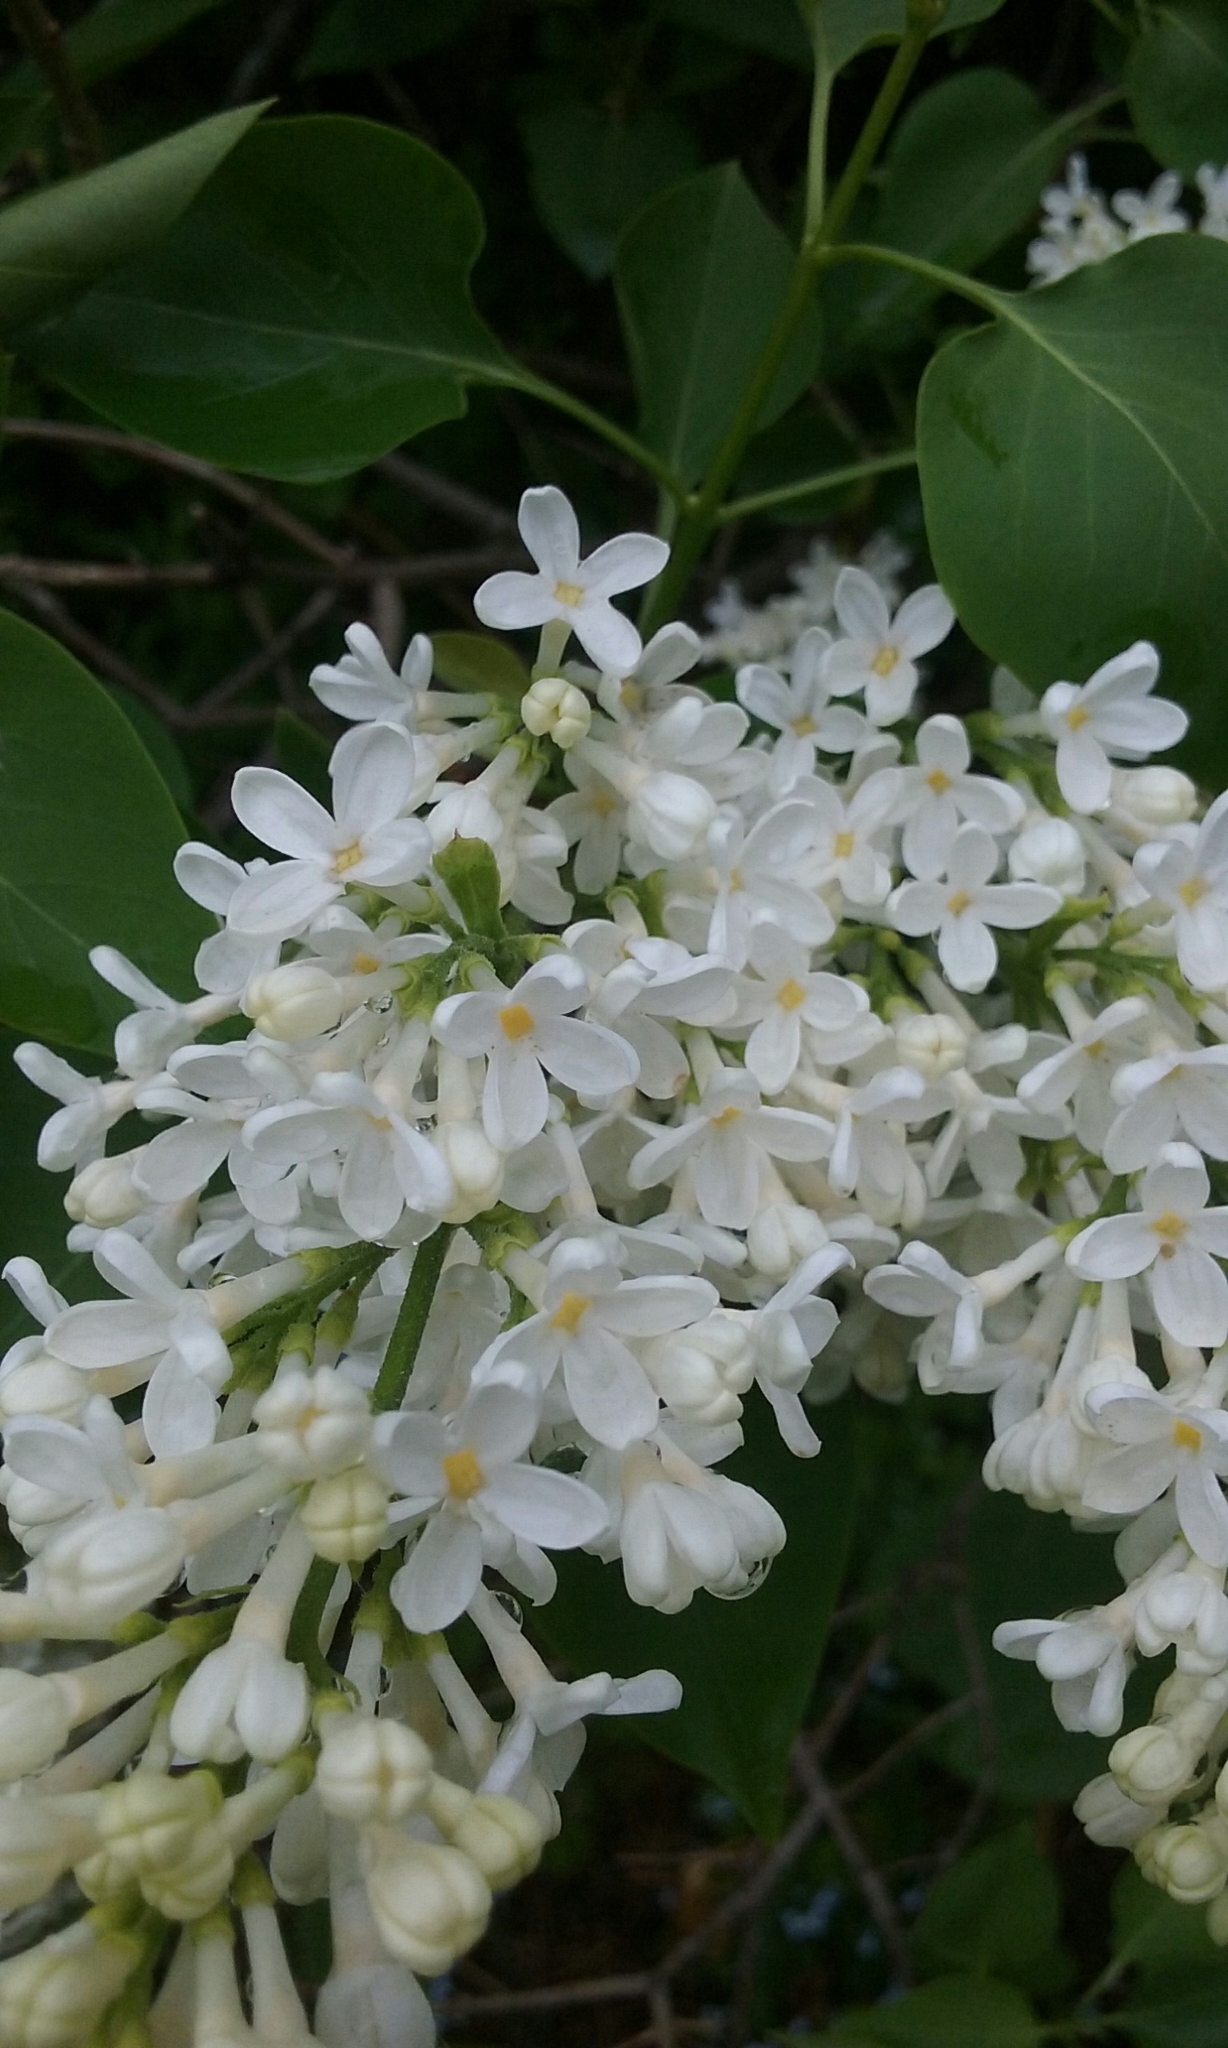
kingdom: Plantae
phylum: Tracheophyta
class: Magnoliopsida
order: Lamiales
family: Oleaceae
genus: Syringa
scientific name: Syringa vulgaris
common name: Common lilac
